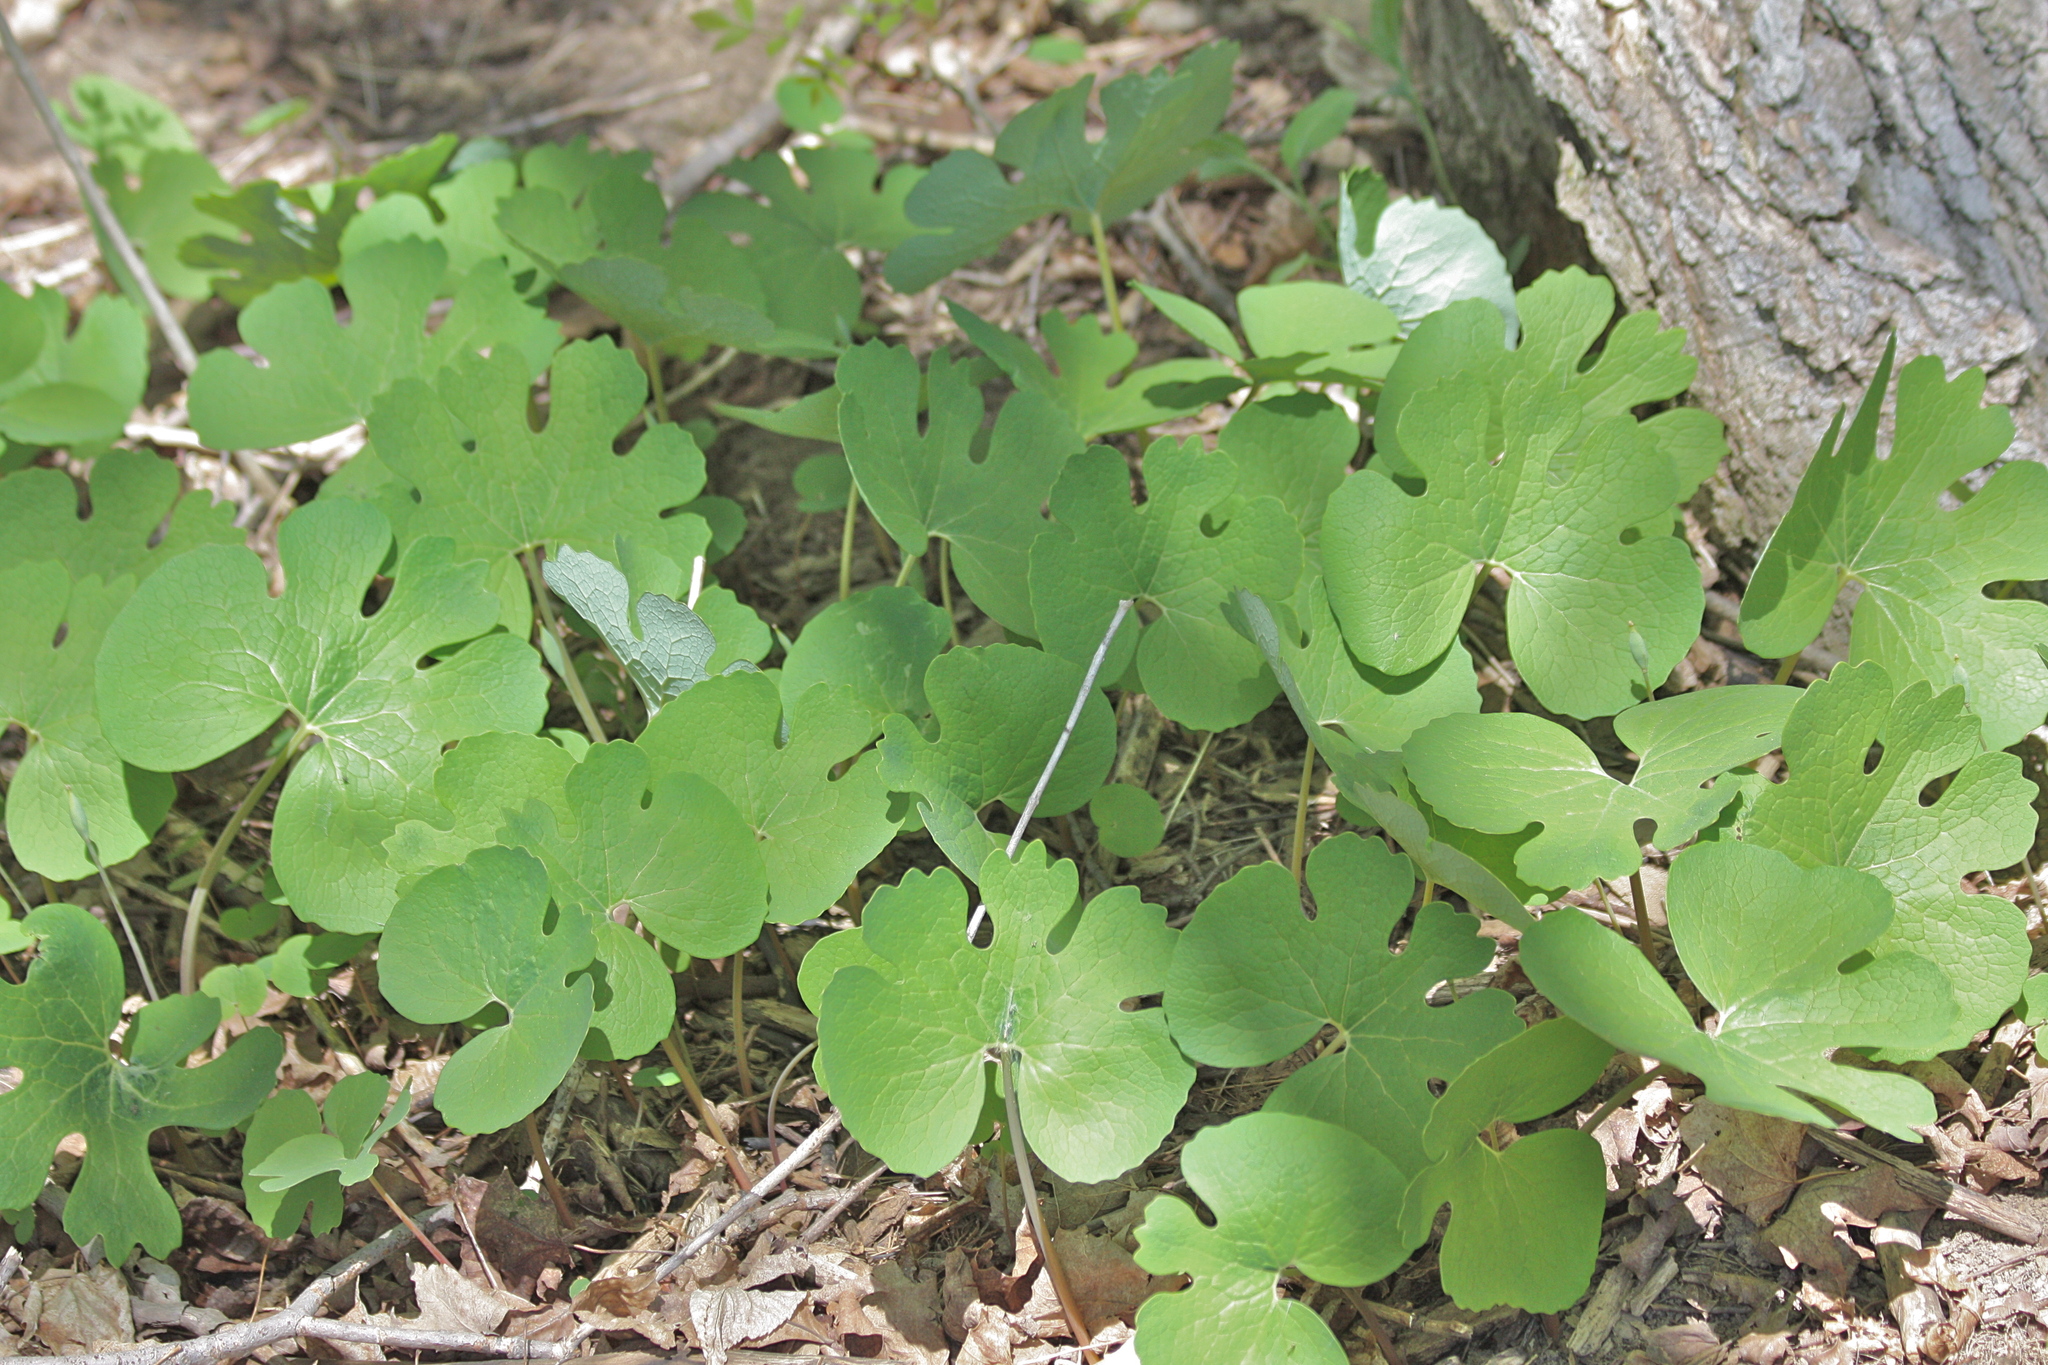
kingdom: Plantae
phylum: Tracheophyta
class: Magnoliopsida
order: Ranunculales
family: Papaveraceae
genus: Sanguinaria
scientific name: Sanguinaria canadensis
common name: Bloodroot
